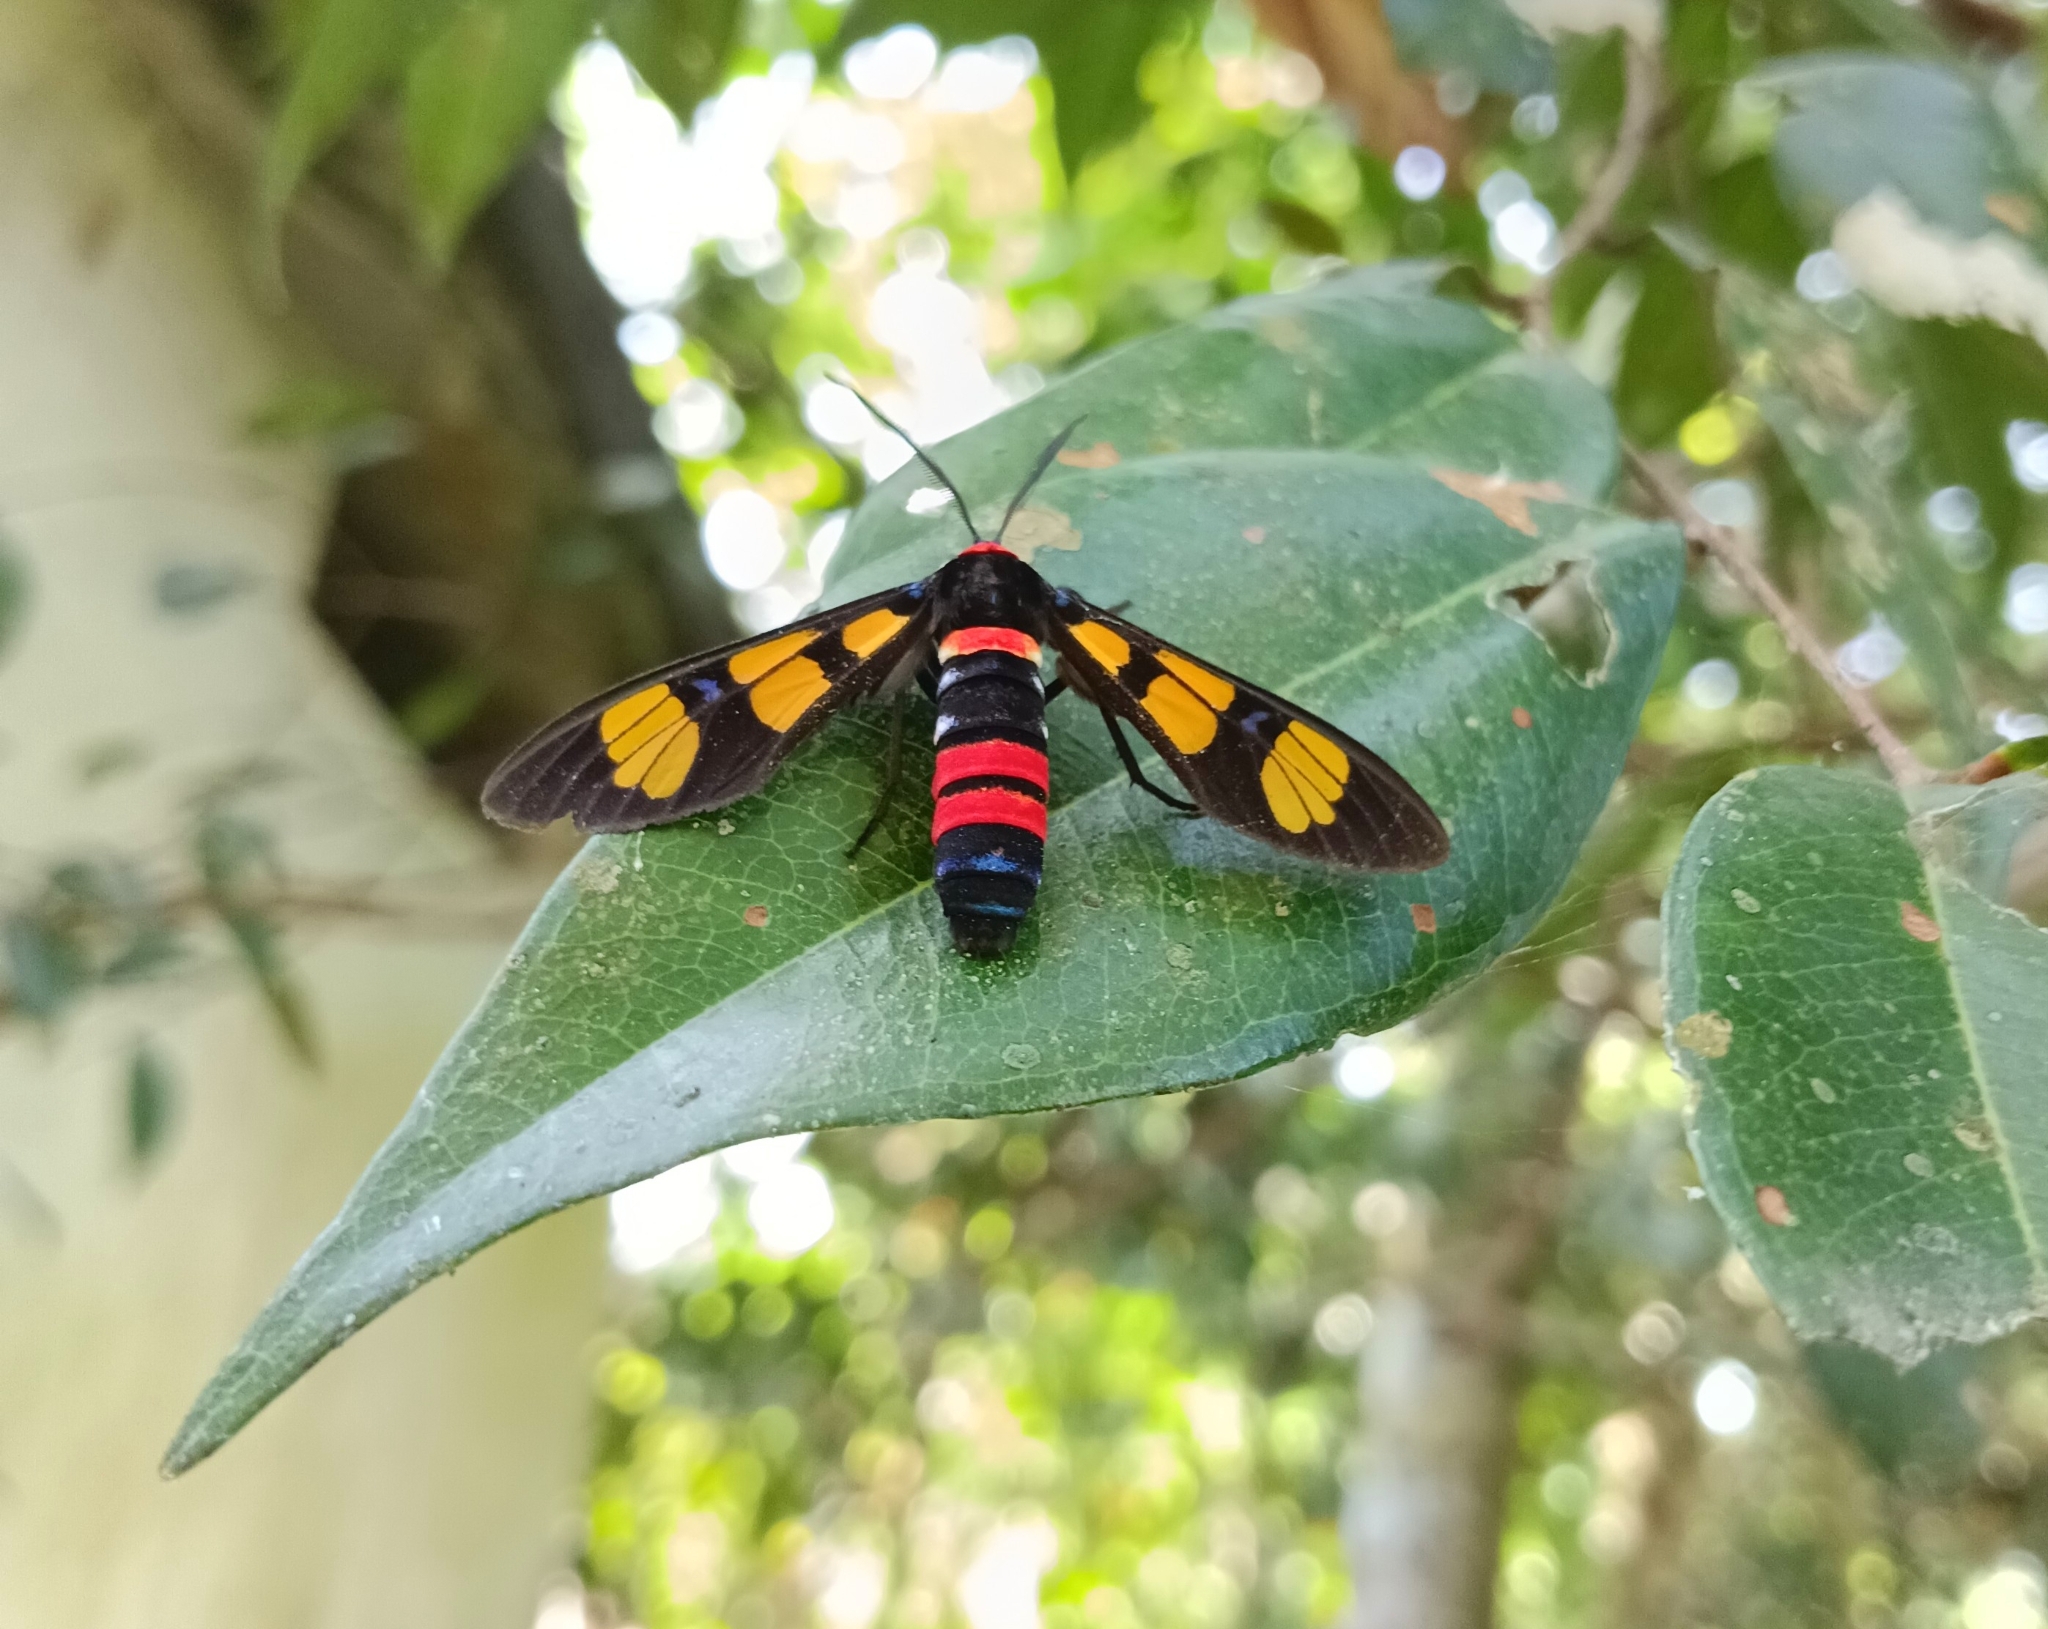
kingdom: Animalia
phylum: Arthropoda
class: Insecta
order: Lepidoptera
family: Erebidae
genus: Euchromia
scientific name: Euchromia polymena
